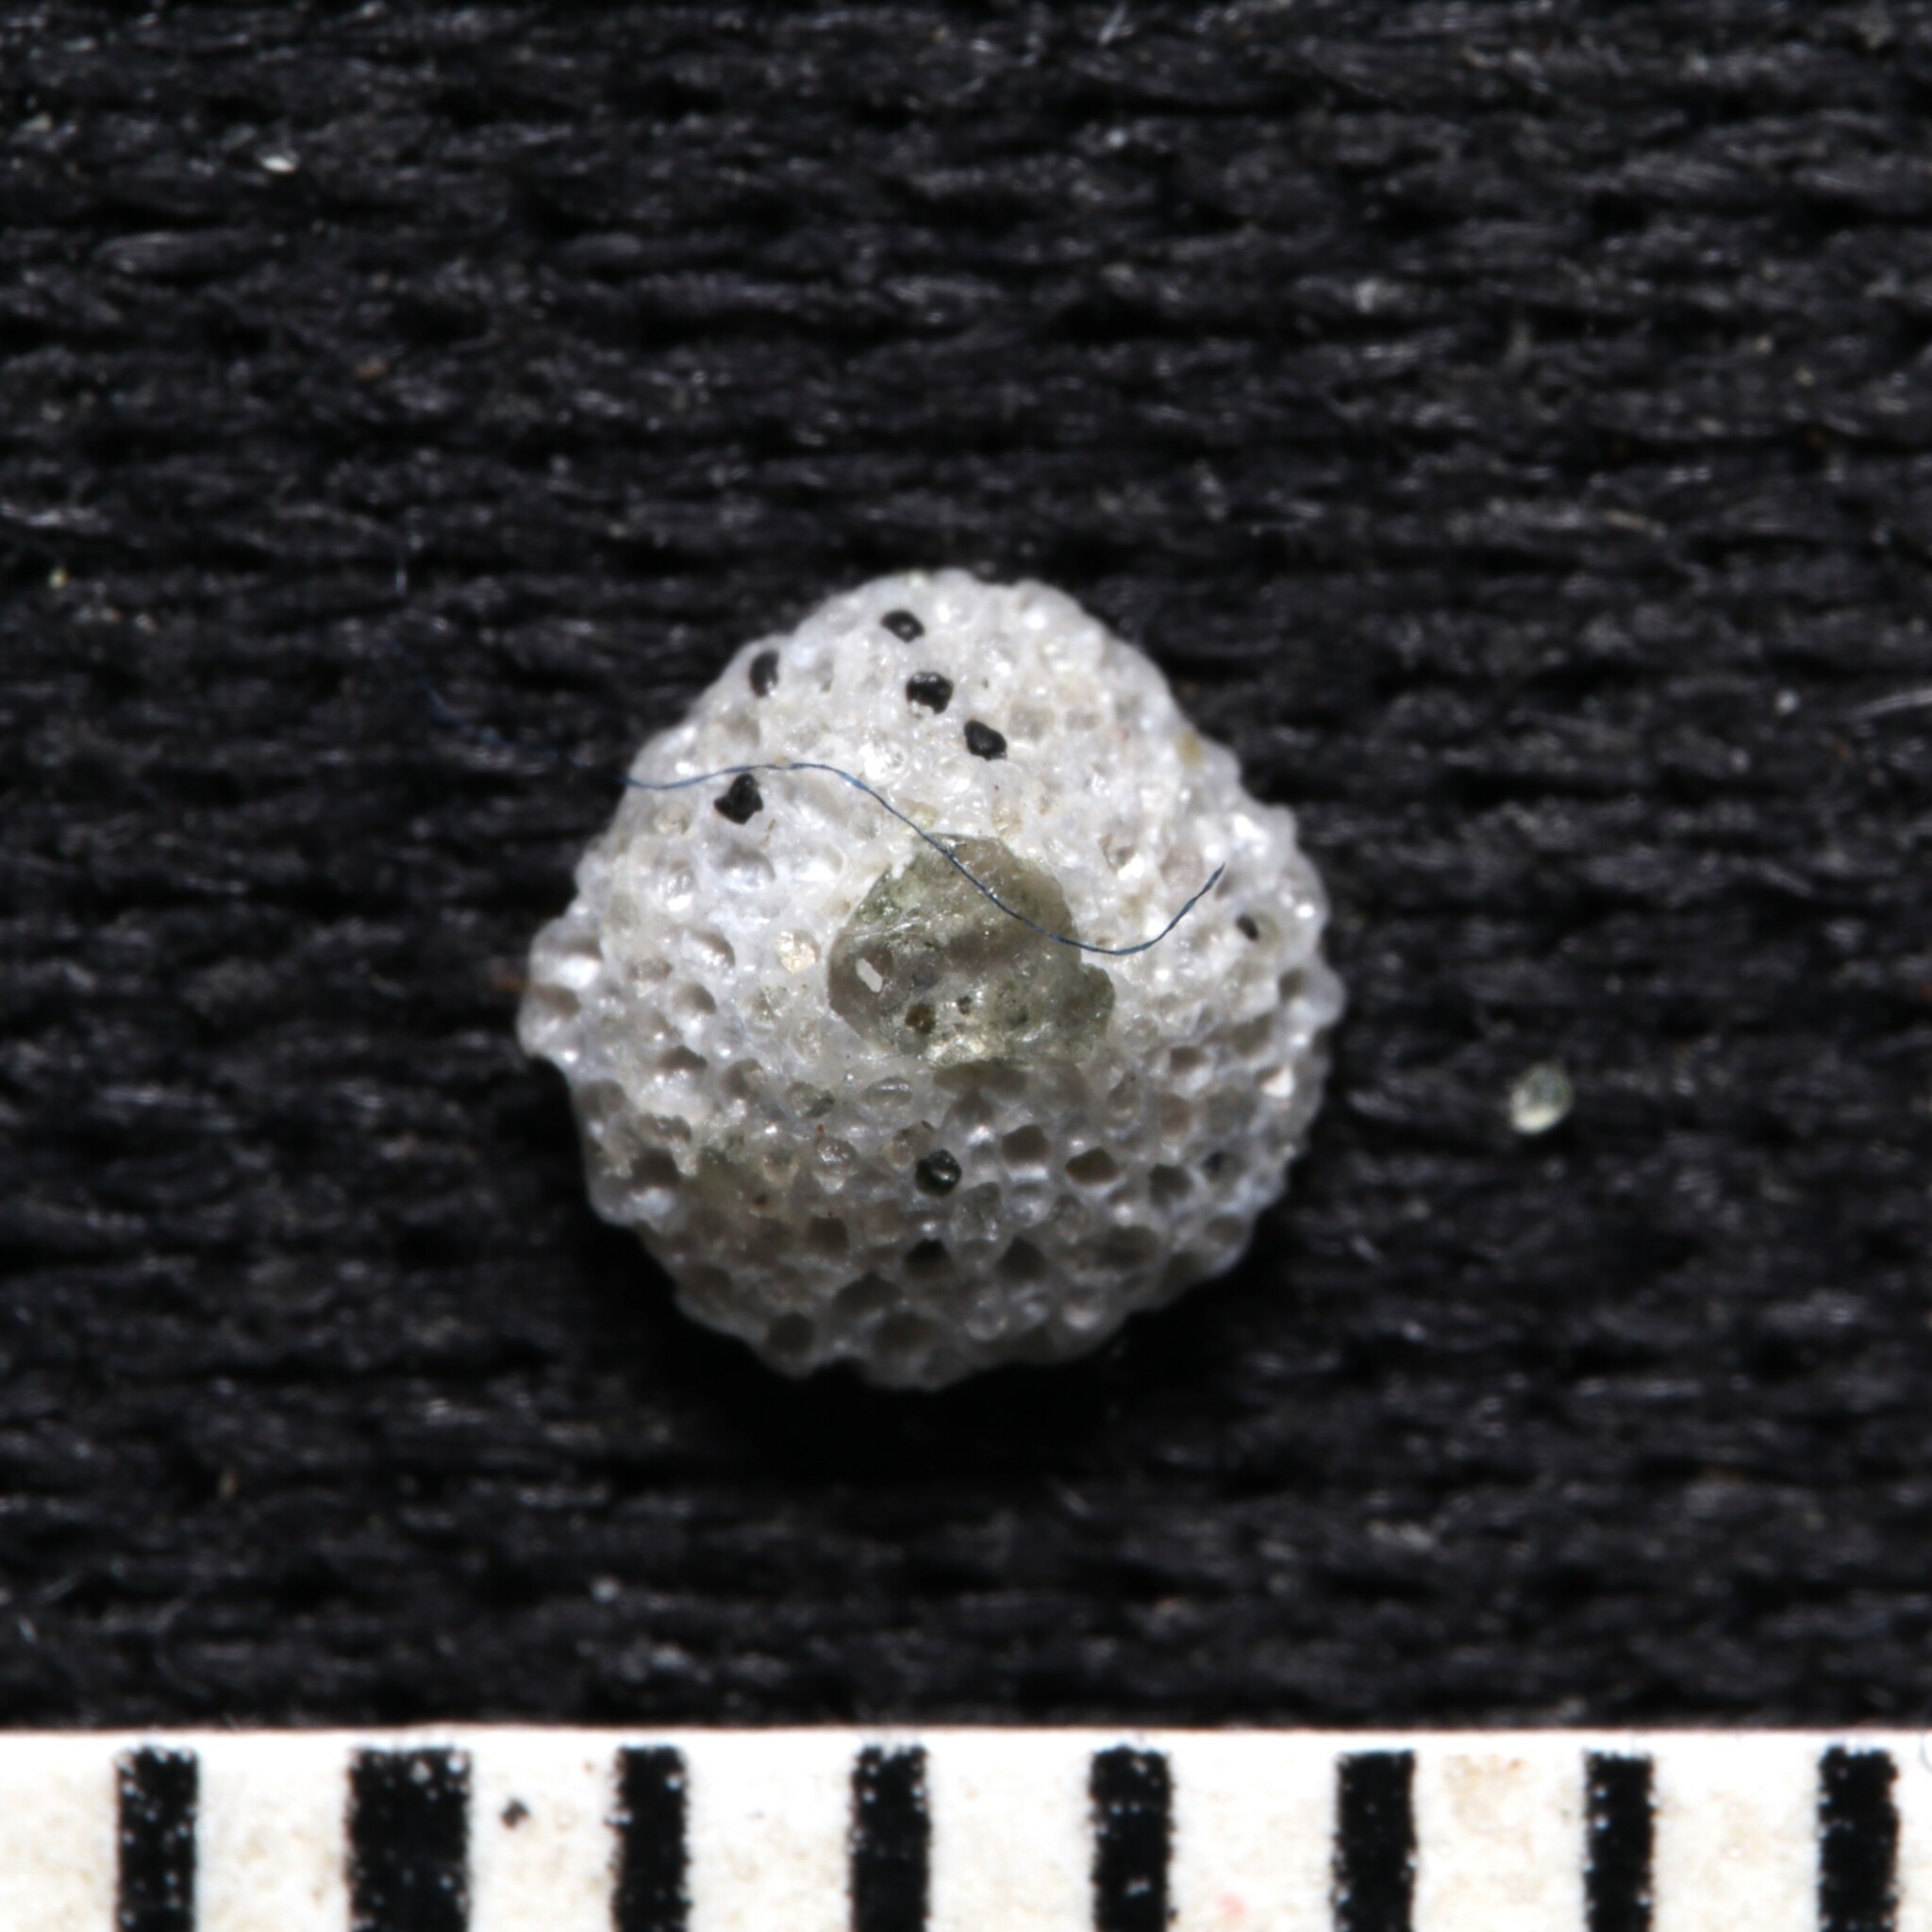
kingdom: Animalia
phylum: Bryozoa
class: Gymnolaemata
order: Cheilostomatida
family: Cupuladriidae
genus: Discoporella
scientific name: Discoporella umbellata
